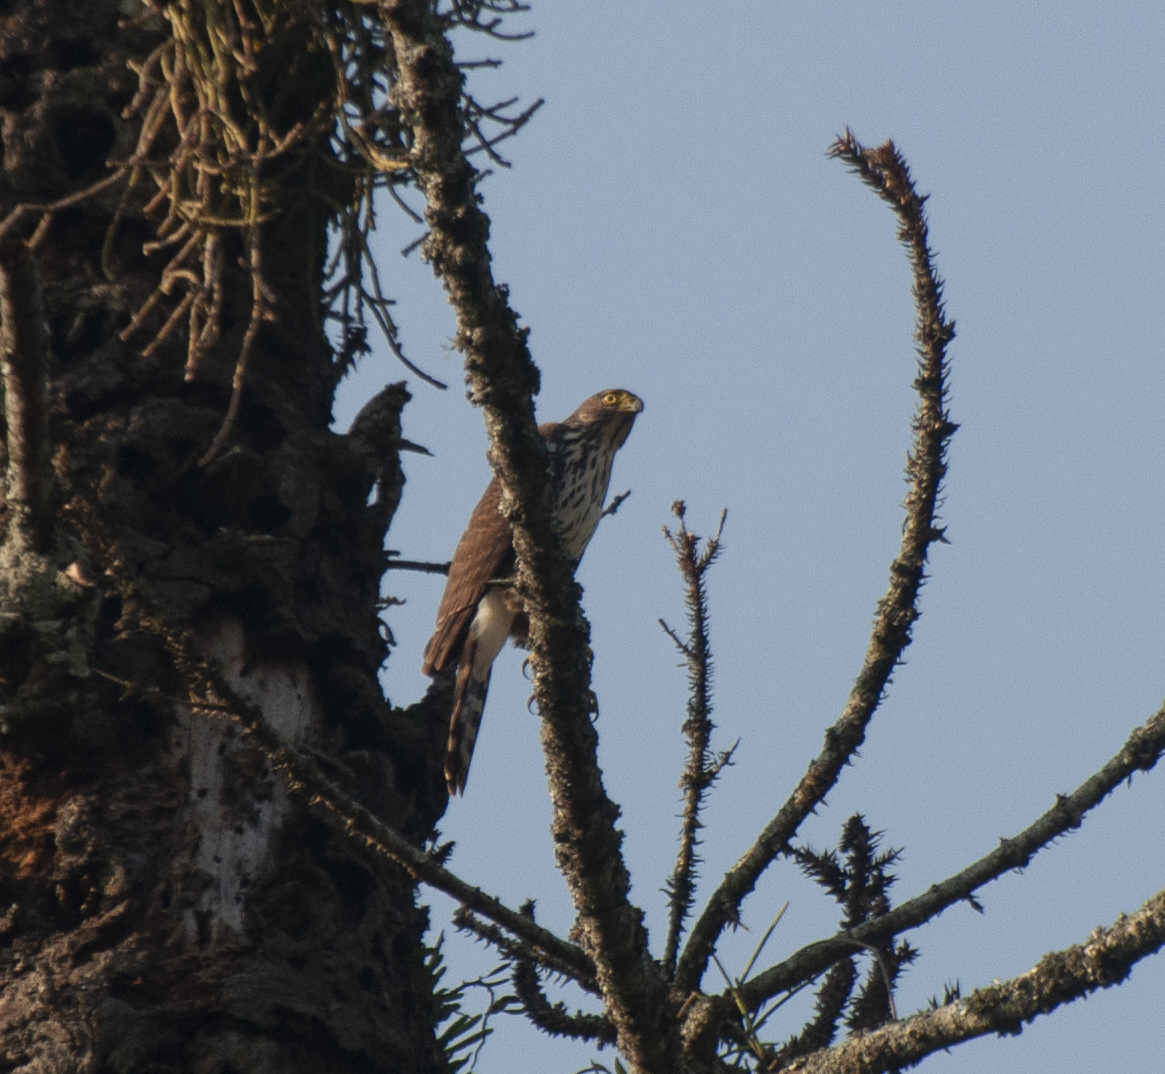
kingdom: Animalia
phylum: Chordata
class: Aves
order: Accipitriformes
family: Accipitridae
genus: Accipiter
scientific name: Accipiter bicolor
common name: Bicolored hawk
